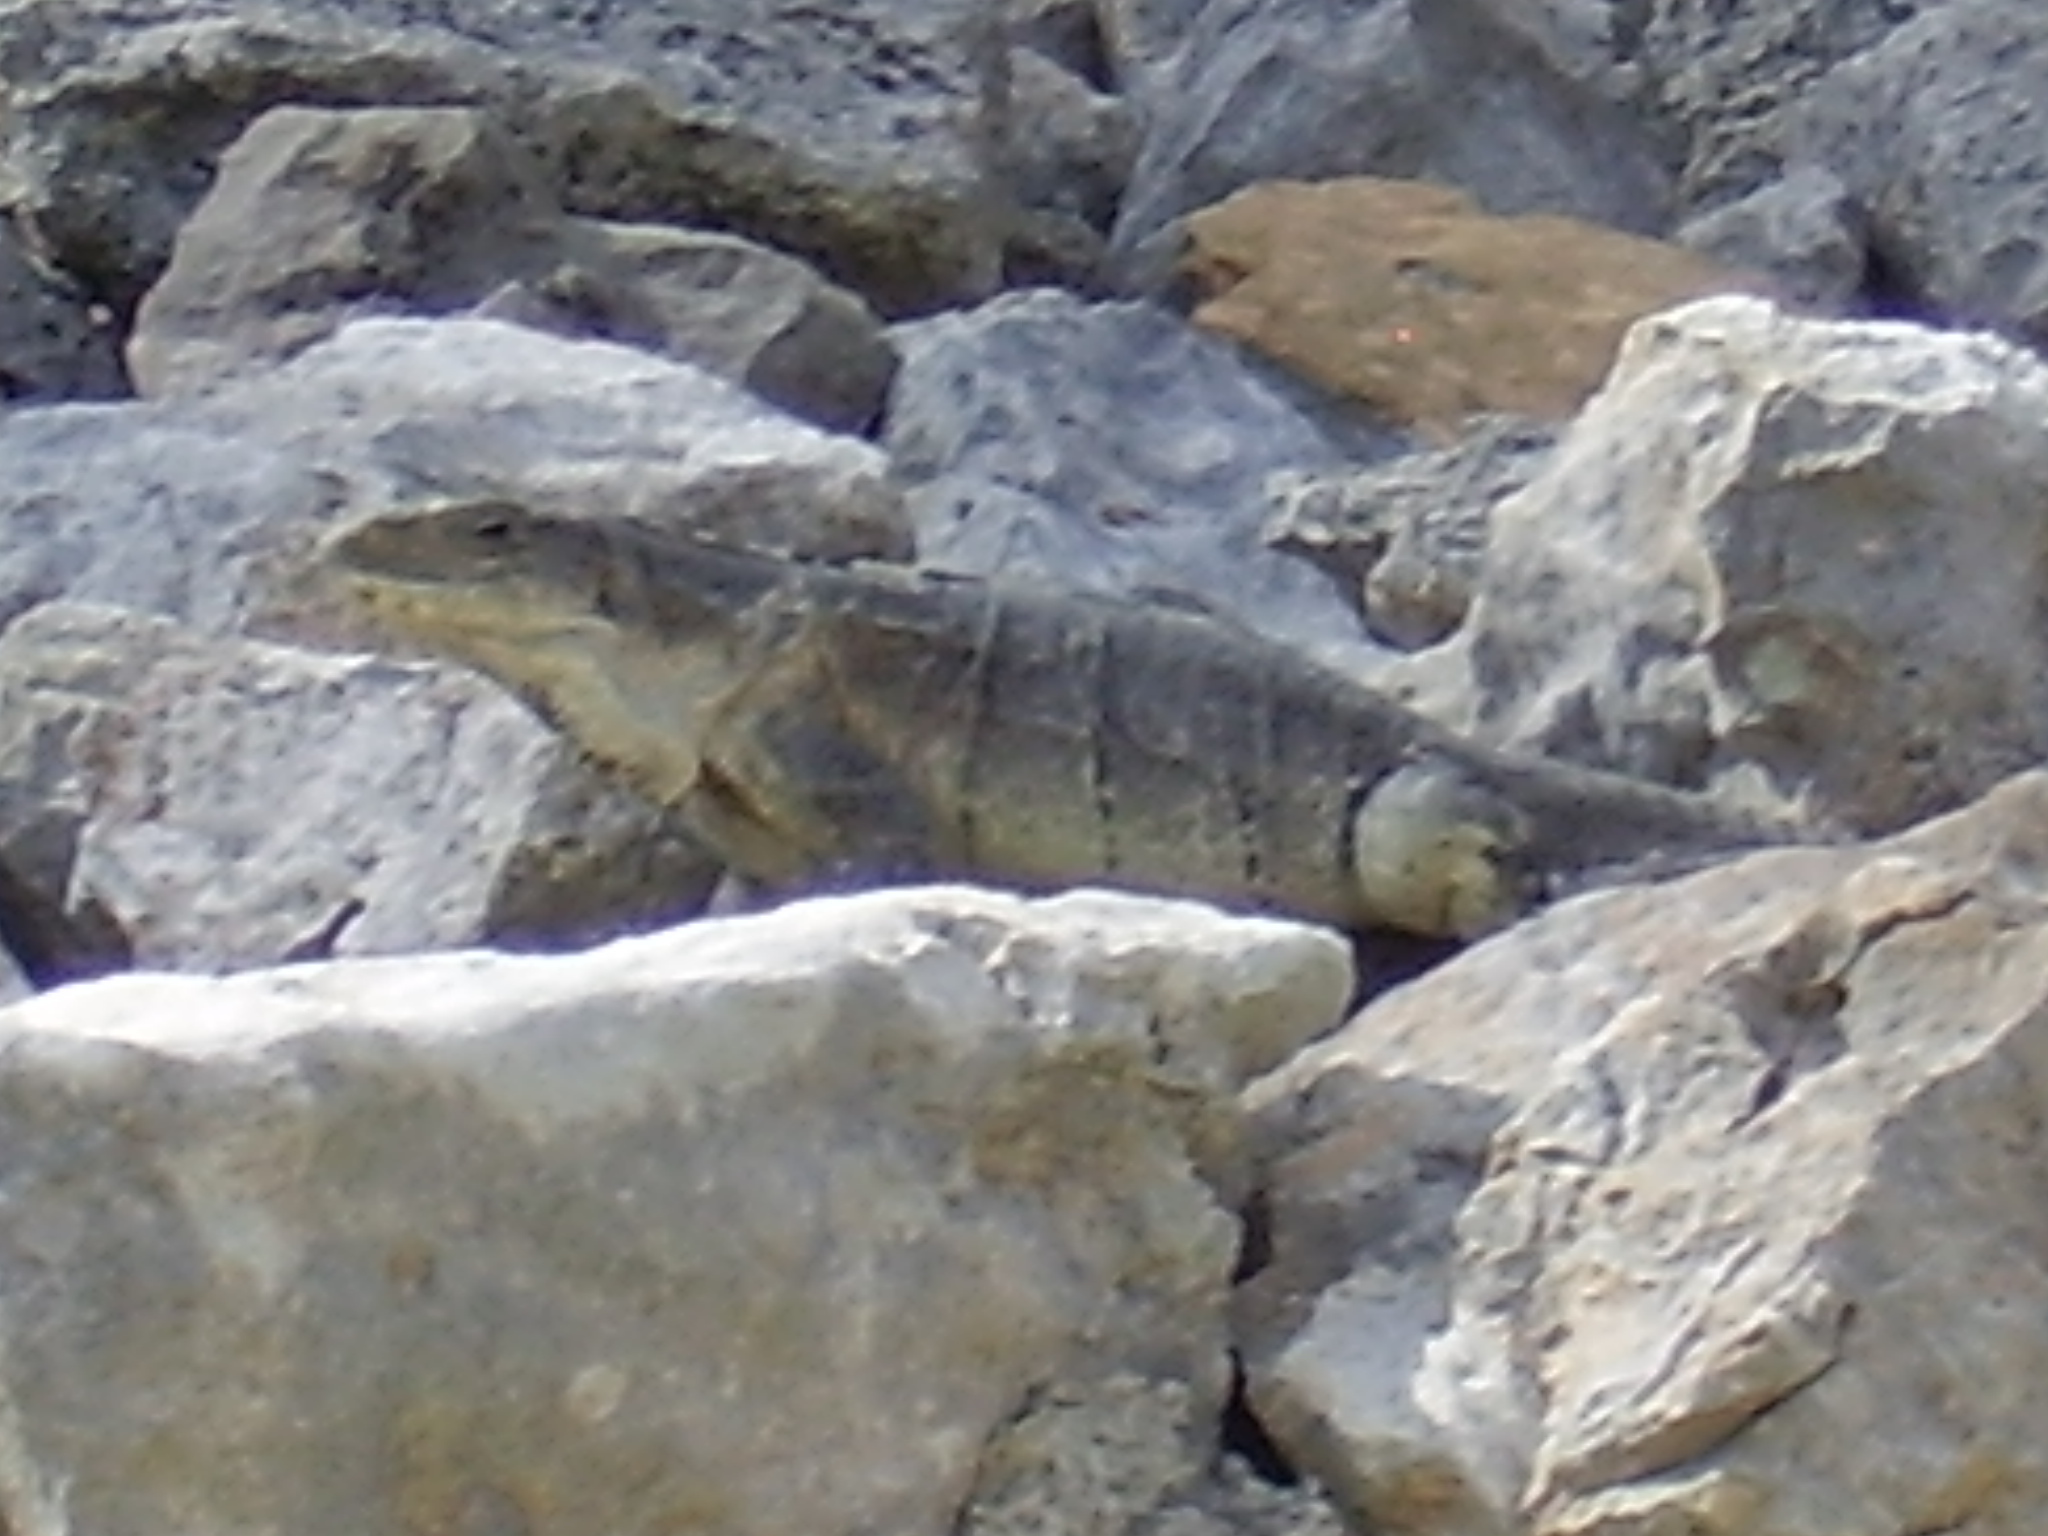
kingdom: Animalia
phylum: Chordata
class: Squamata
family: Iguanidae
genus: Ctenosaura
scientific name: Ctenosaura similis
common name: Black spiny-tailed iguana
